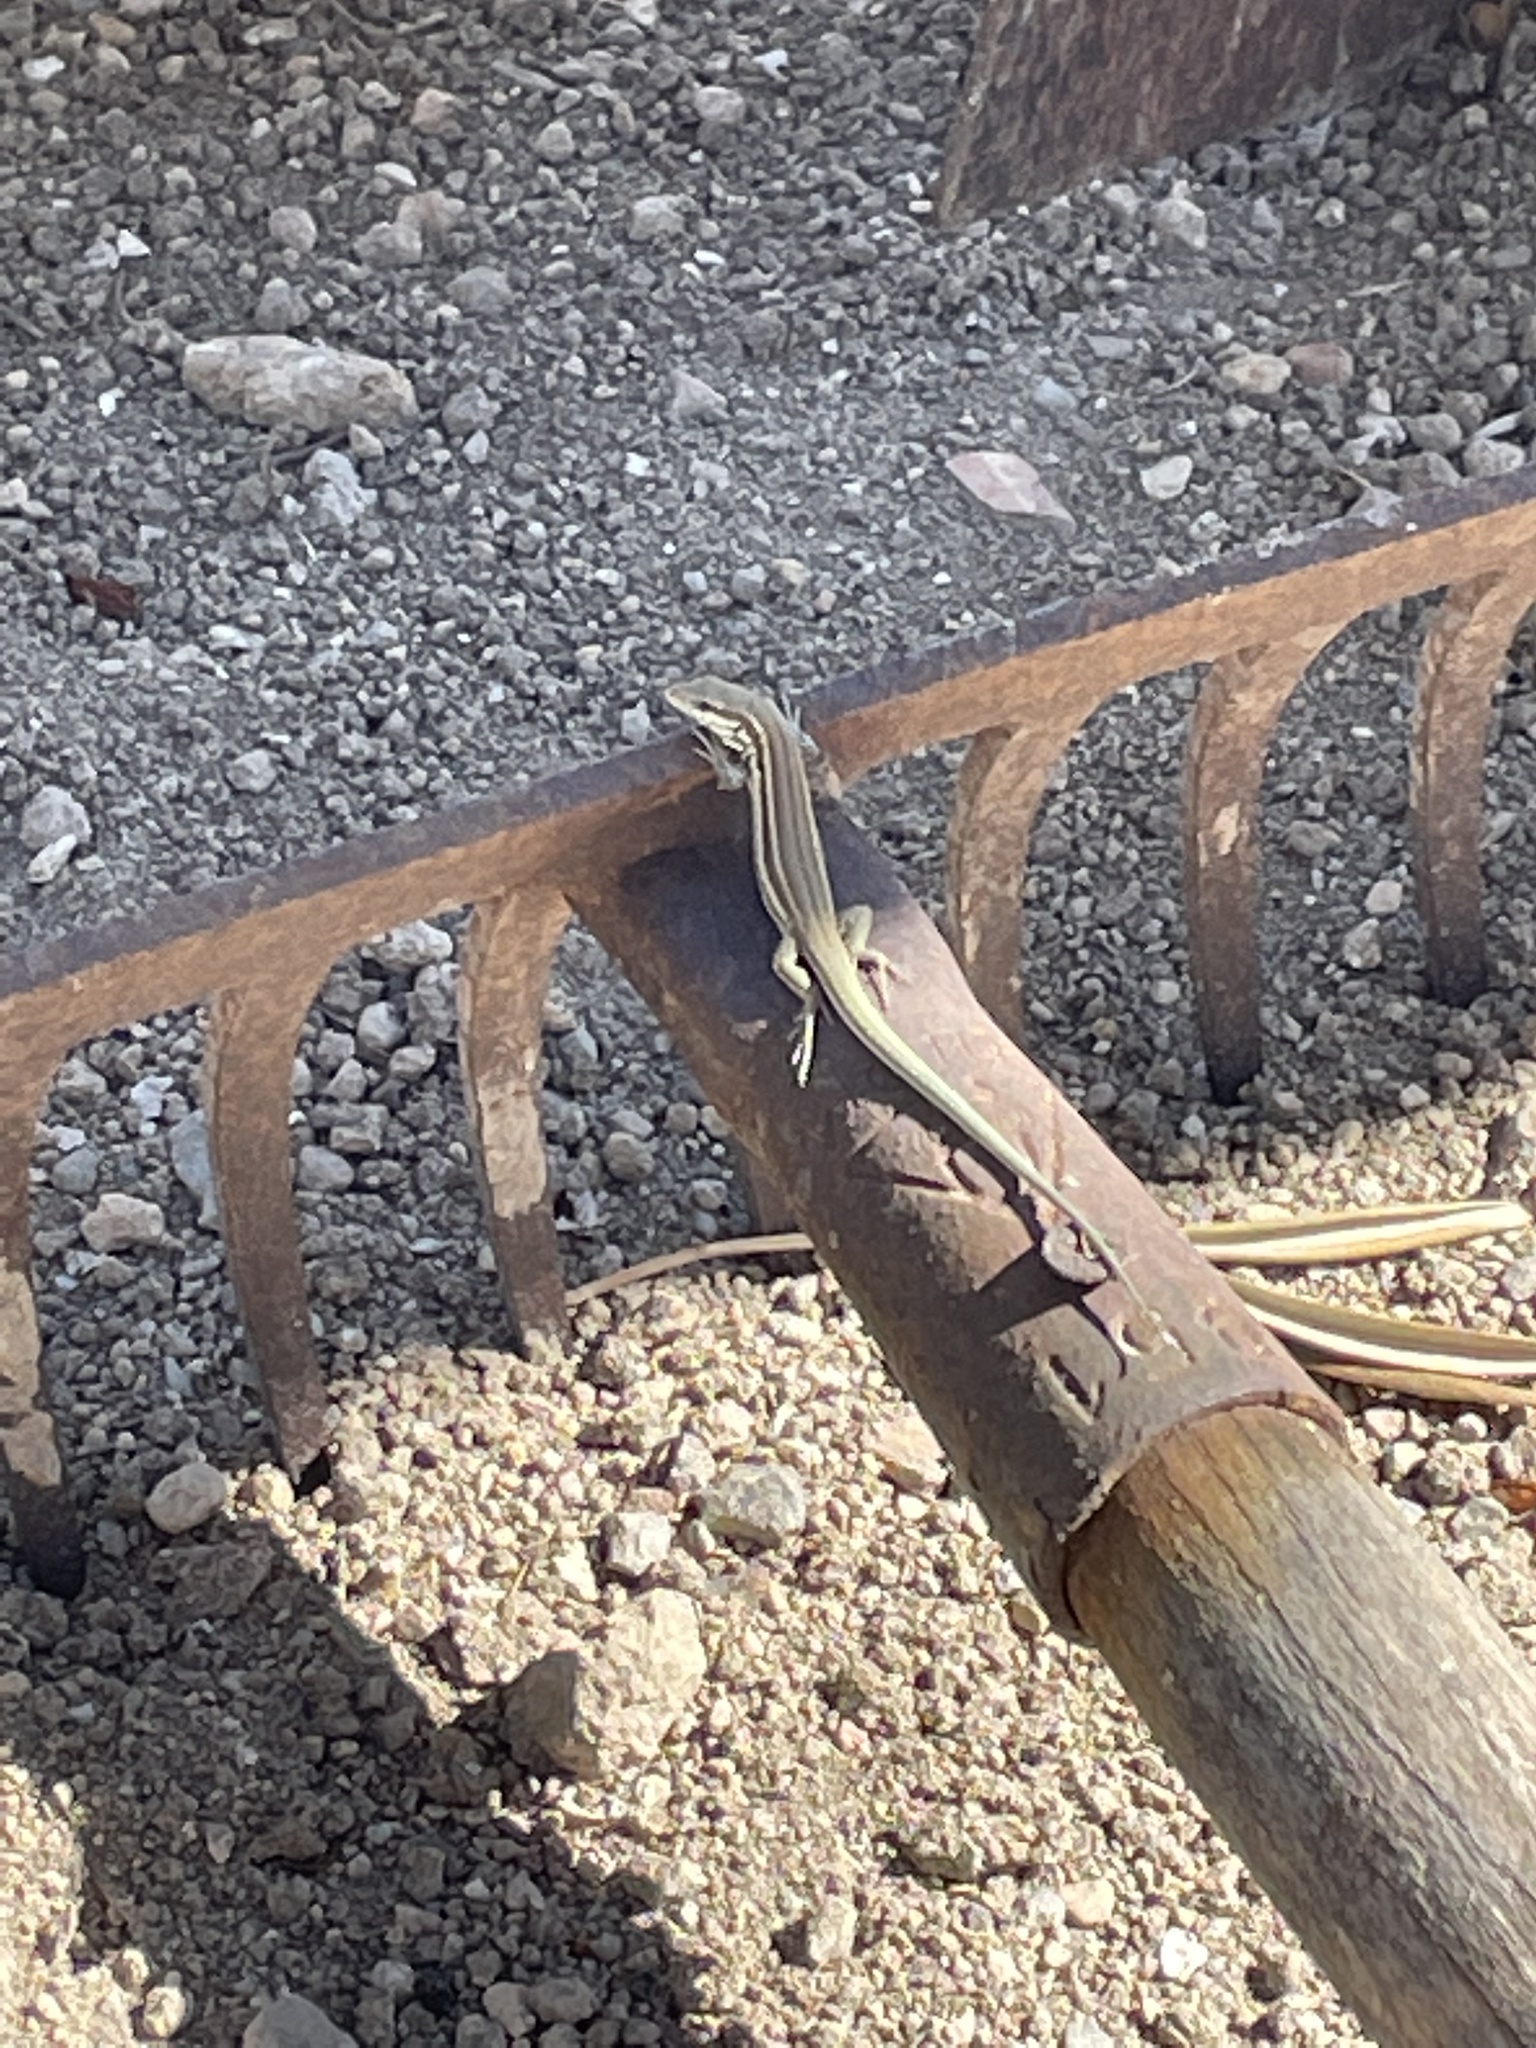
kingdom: Animalia
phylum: Chordata
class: Squamata
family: Lacertidae
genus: Podarcis
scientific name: Podarcis milensis
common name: Milos wall lizard
